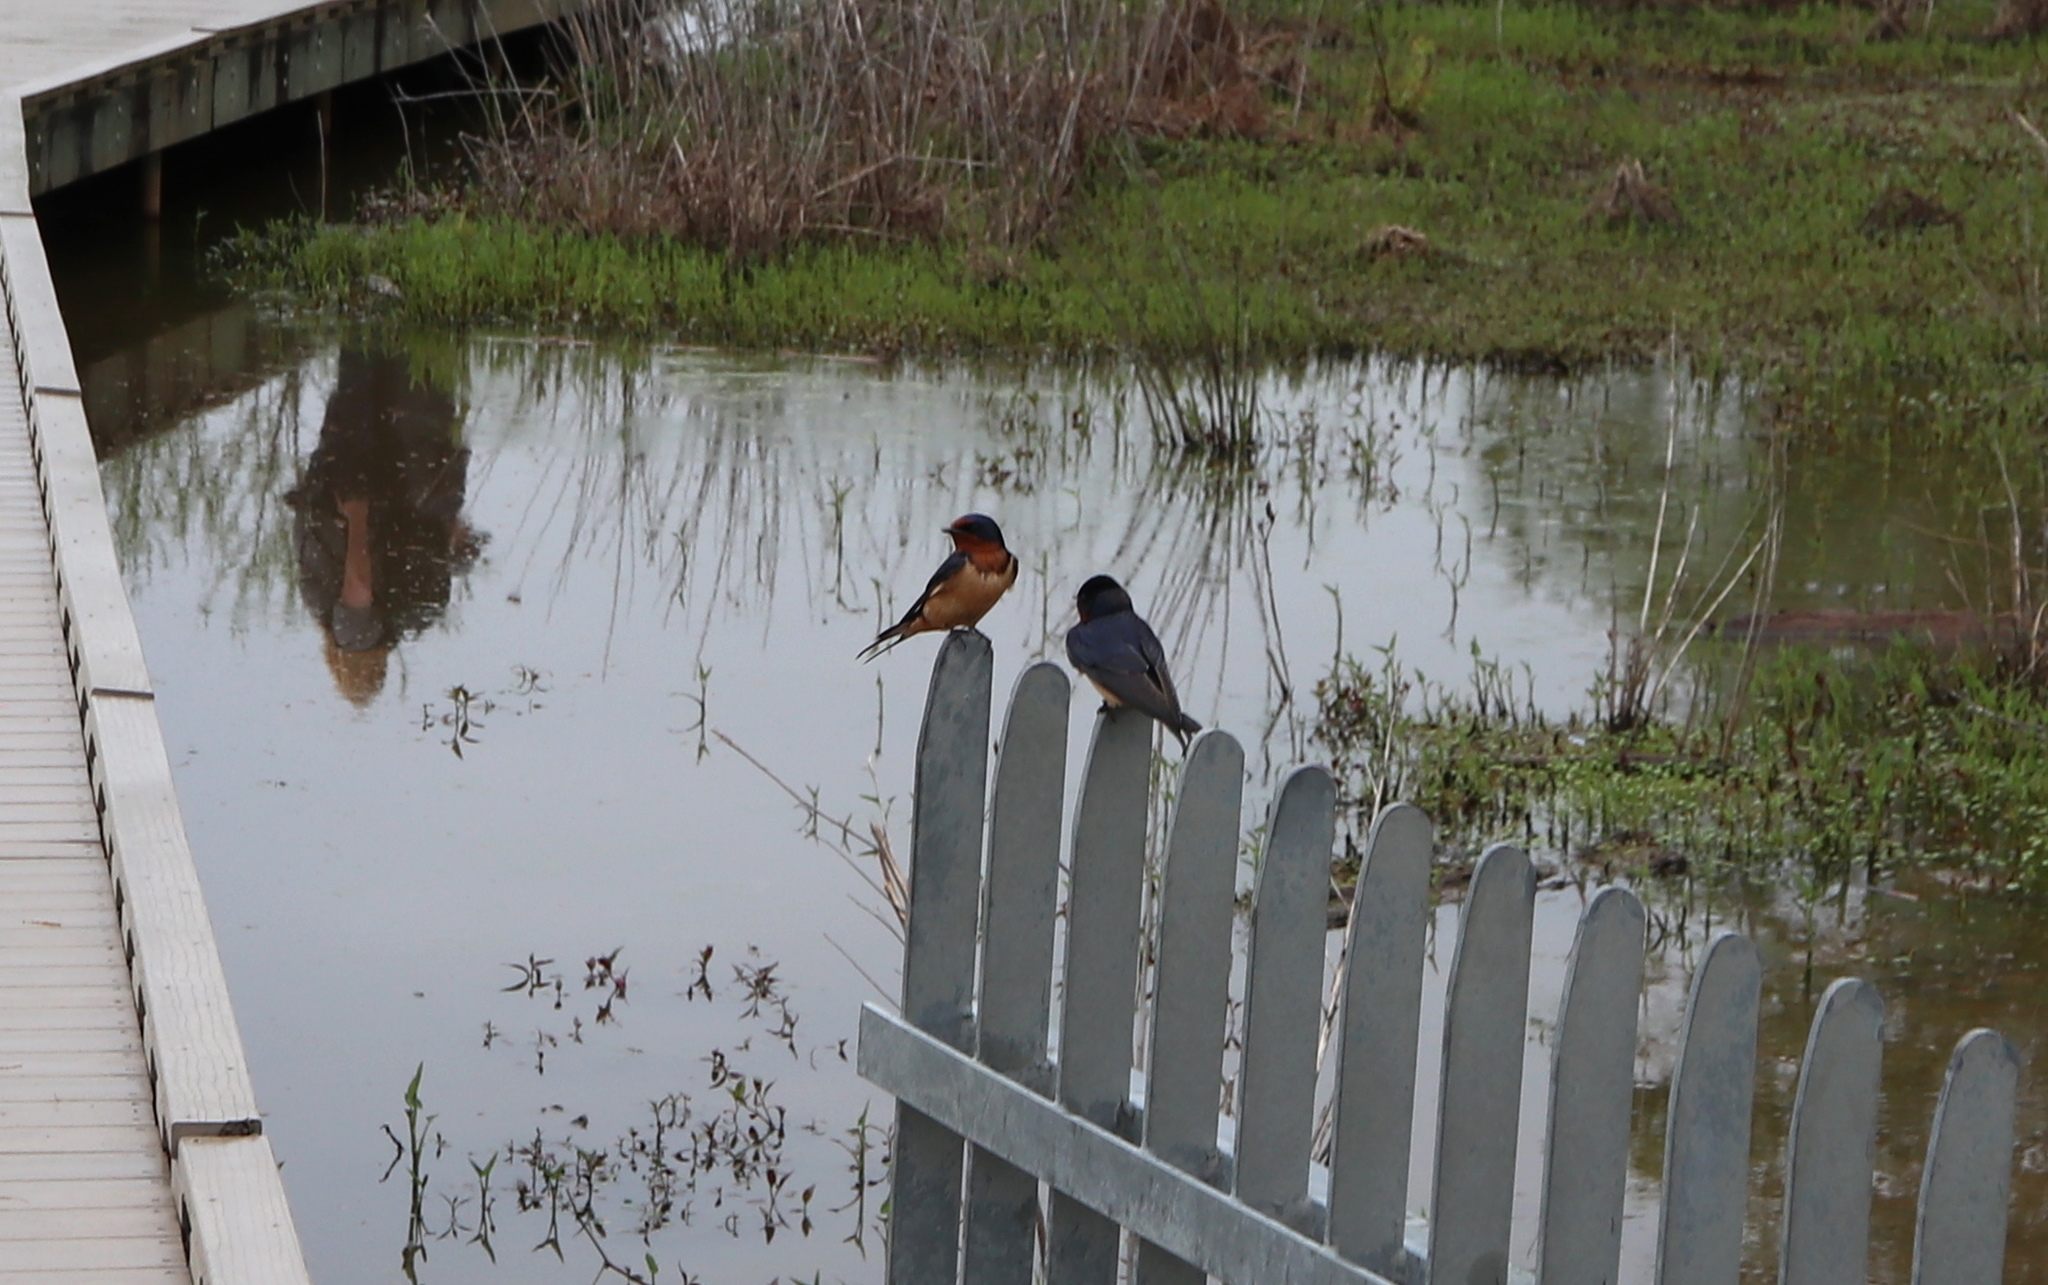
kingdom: Animalia
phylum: Chordata
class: Aves
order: Passeriformes
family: Hirundinidae
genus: Hirundo
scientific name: Hirundo rustica
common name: Barn swallow
